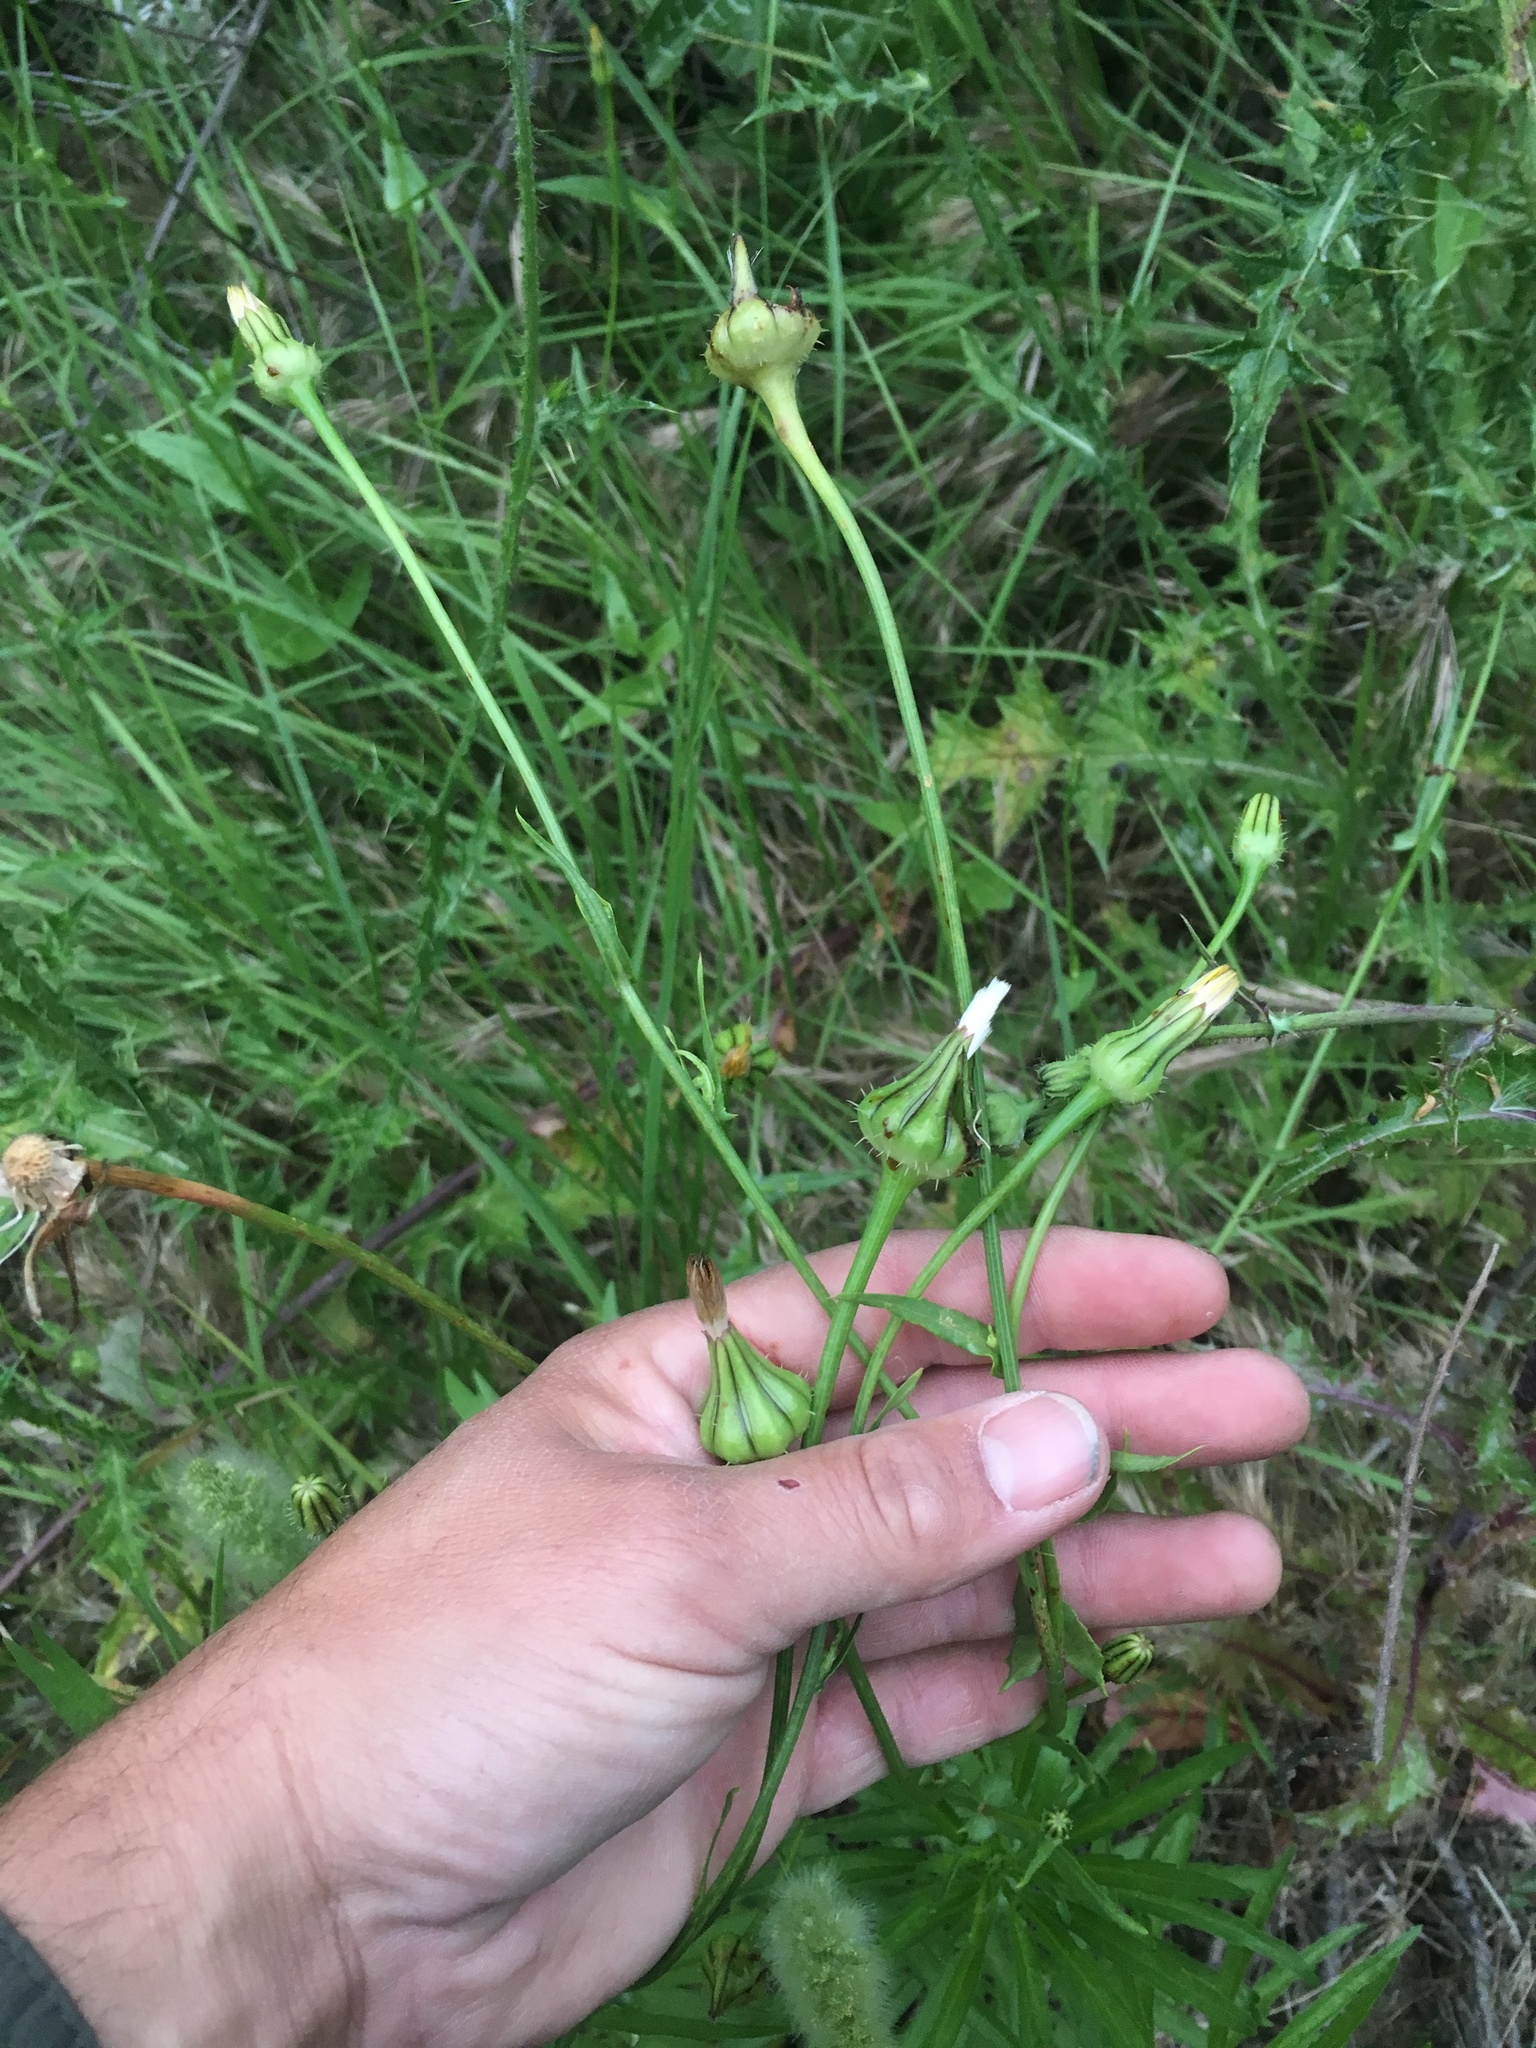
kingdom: Plantae
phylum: Tracheophyta
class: Magnoliopsida
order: Asterales
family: Asteraceae
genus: Urospermum
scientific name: Urospermum picroides
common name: False hawkbit
